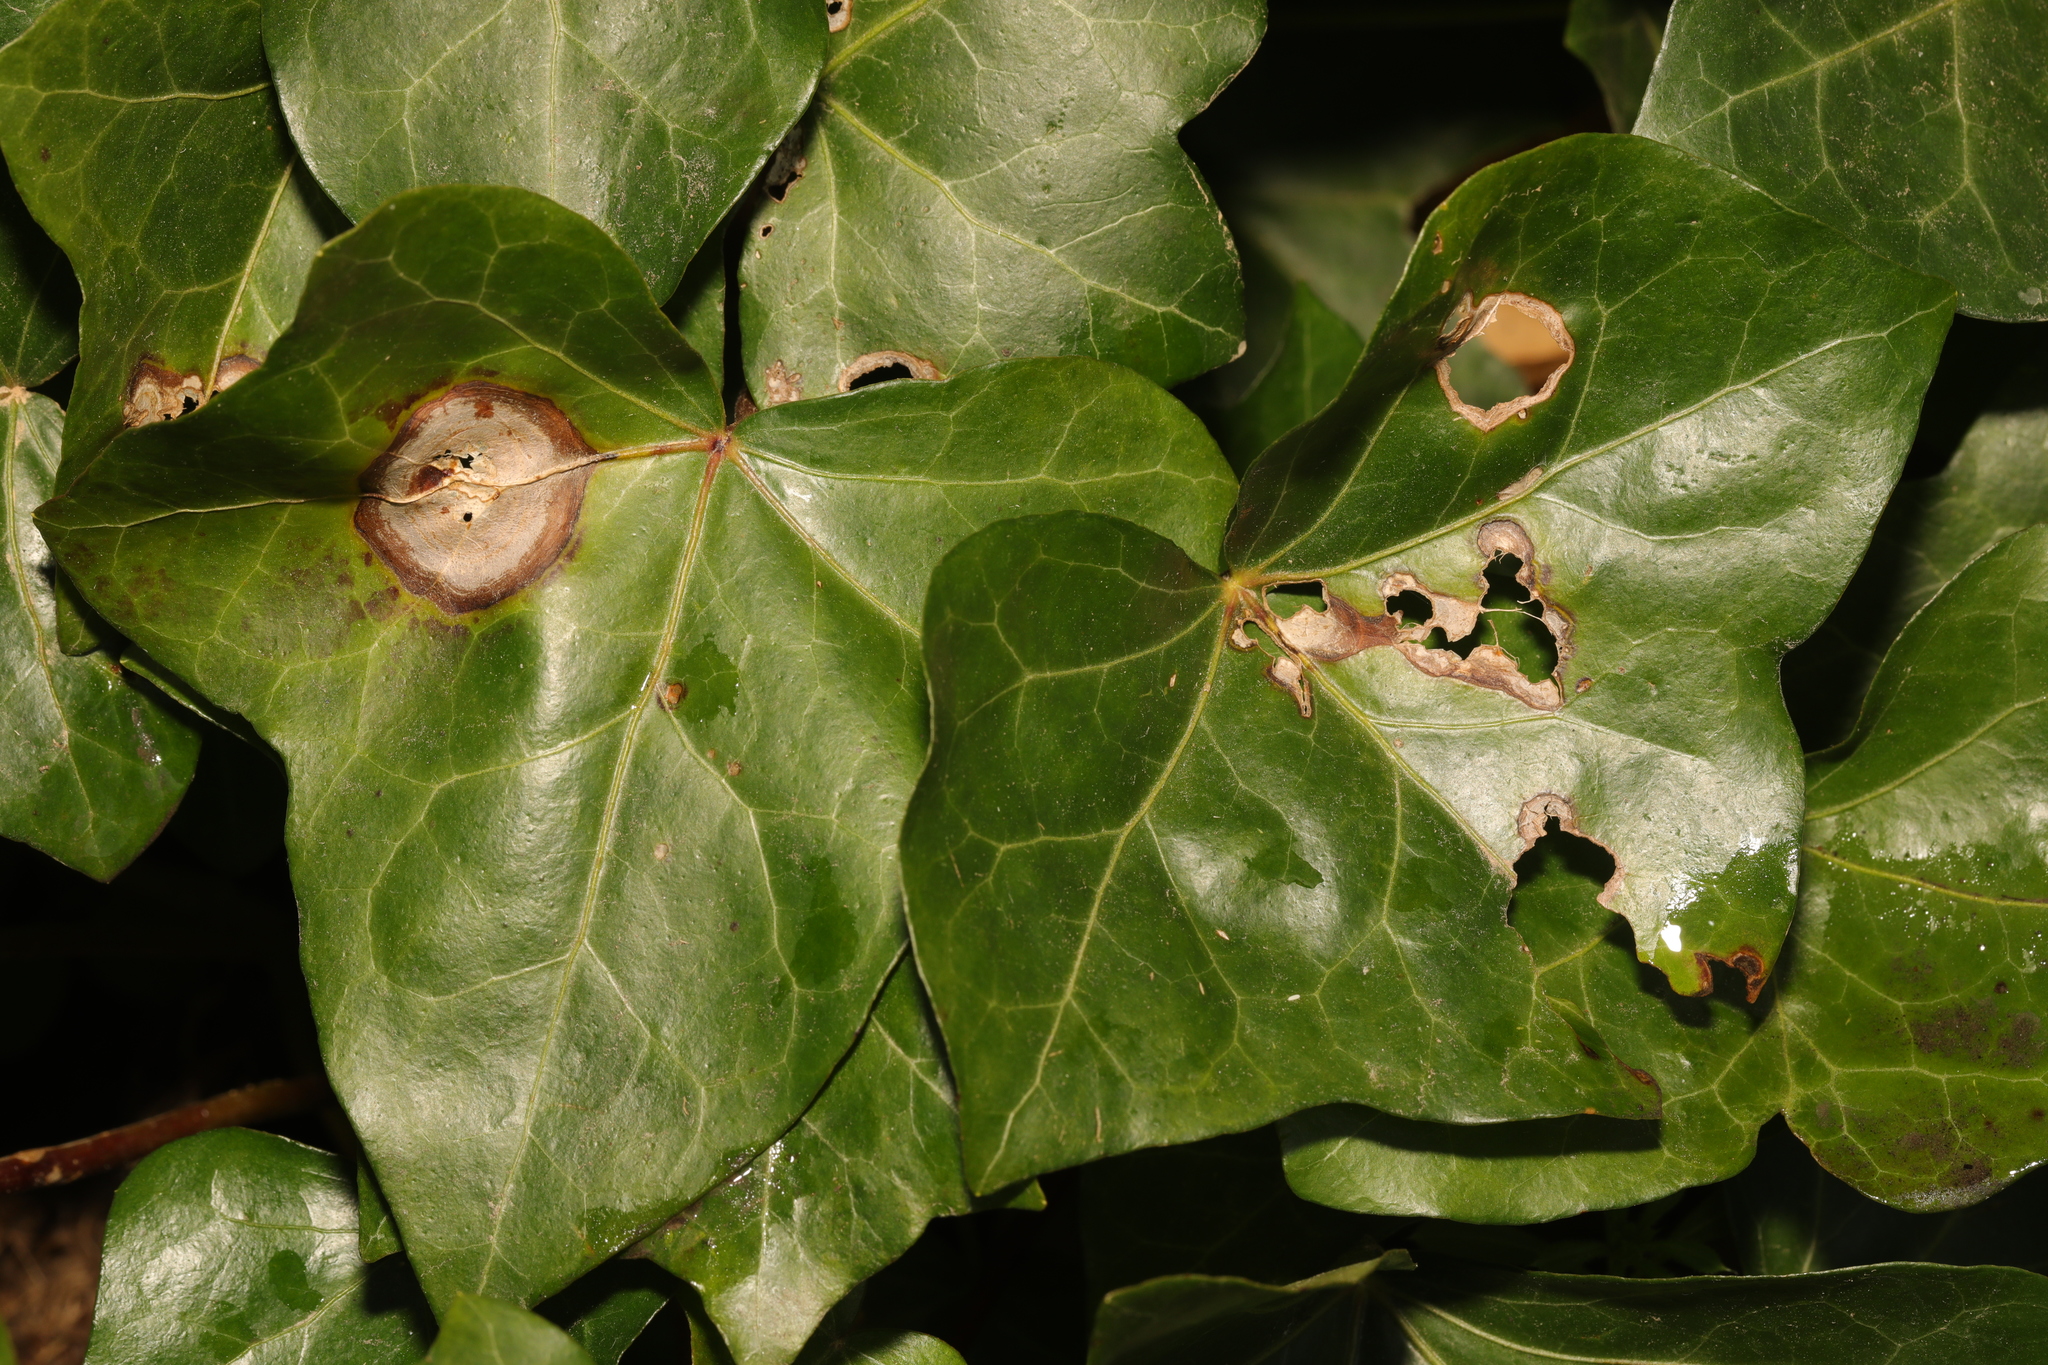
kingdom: Plantae
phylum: Tracheophyta
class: Magnoliopsida
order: Apiales
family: Araliaceae
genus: Hedera
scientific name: Hedera helix
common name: Ivy
